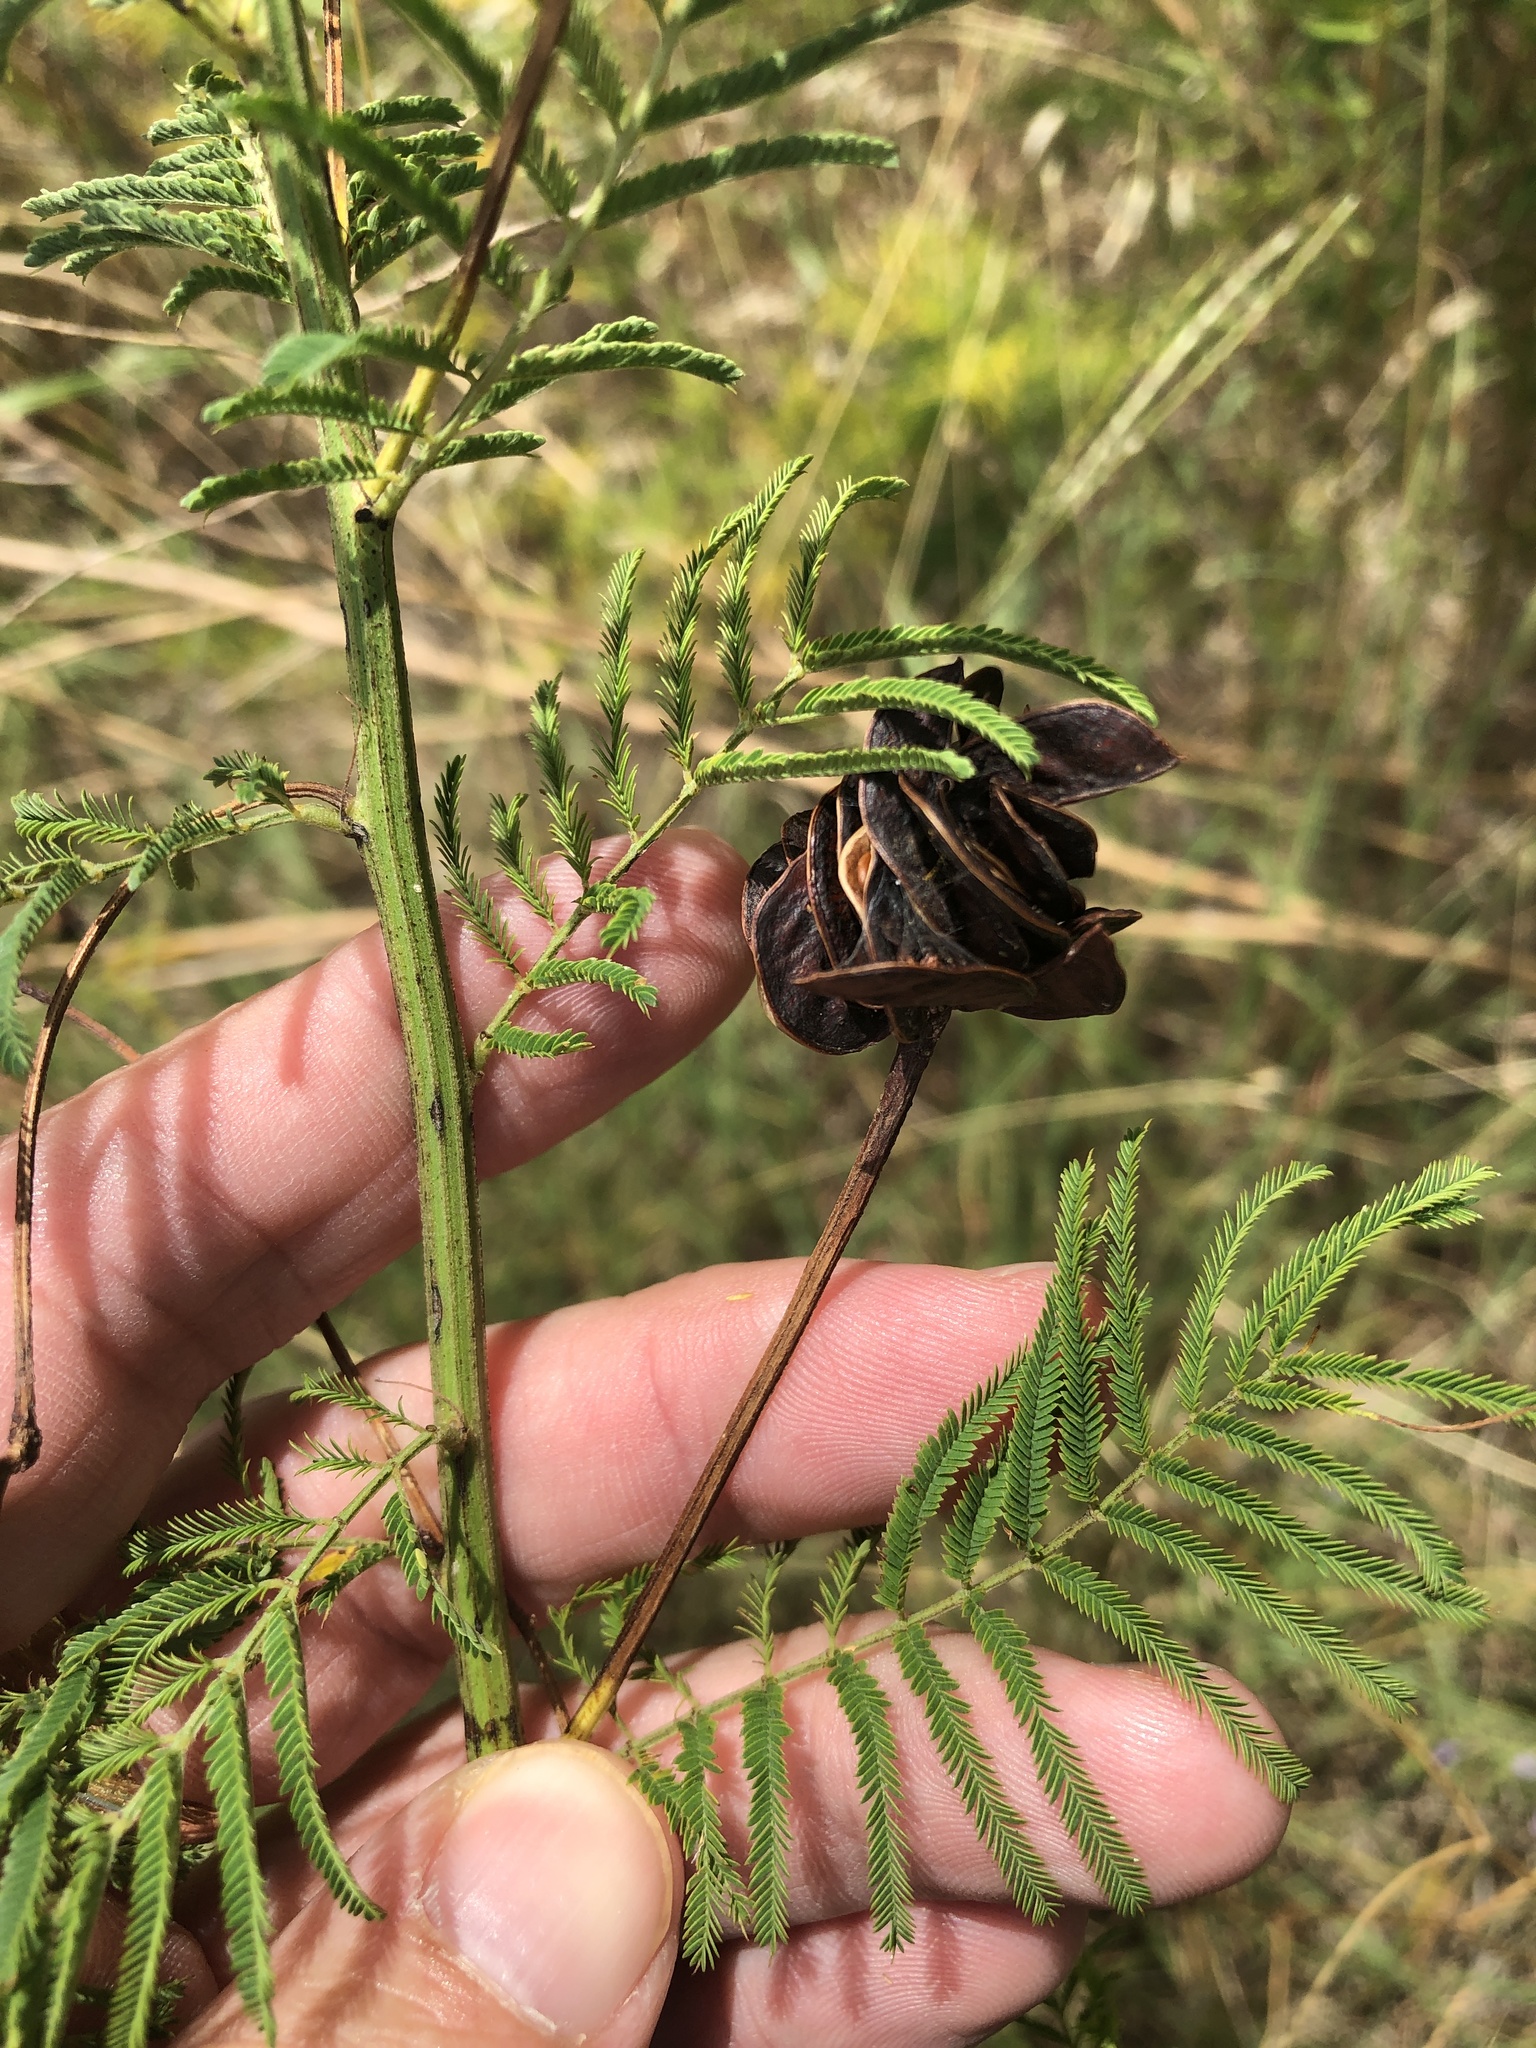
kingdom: Plantae
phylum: Tracheophyta
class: Magnoliopsida
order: Fabales
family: Fabaceae
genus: Desmanthus
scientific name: Desmanthus illinoensis
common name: Illinois bundle-flower
